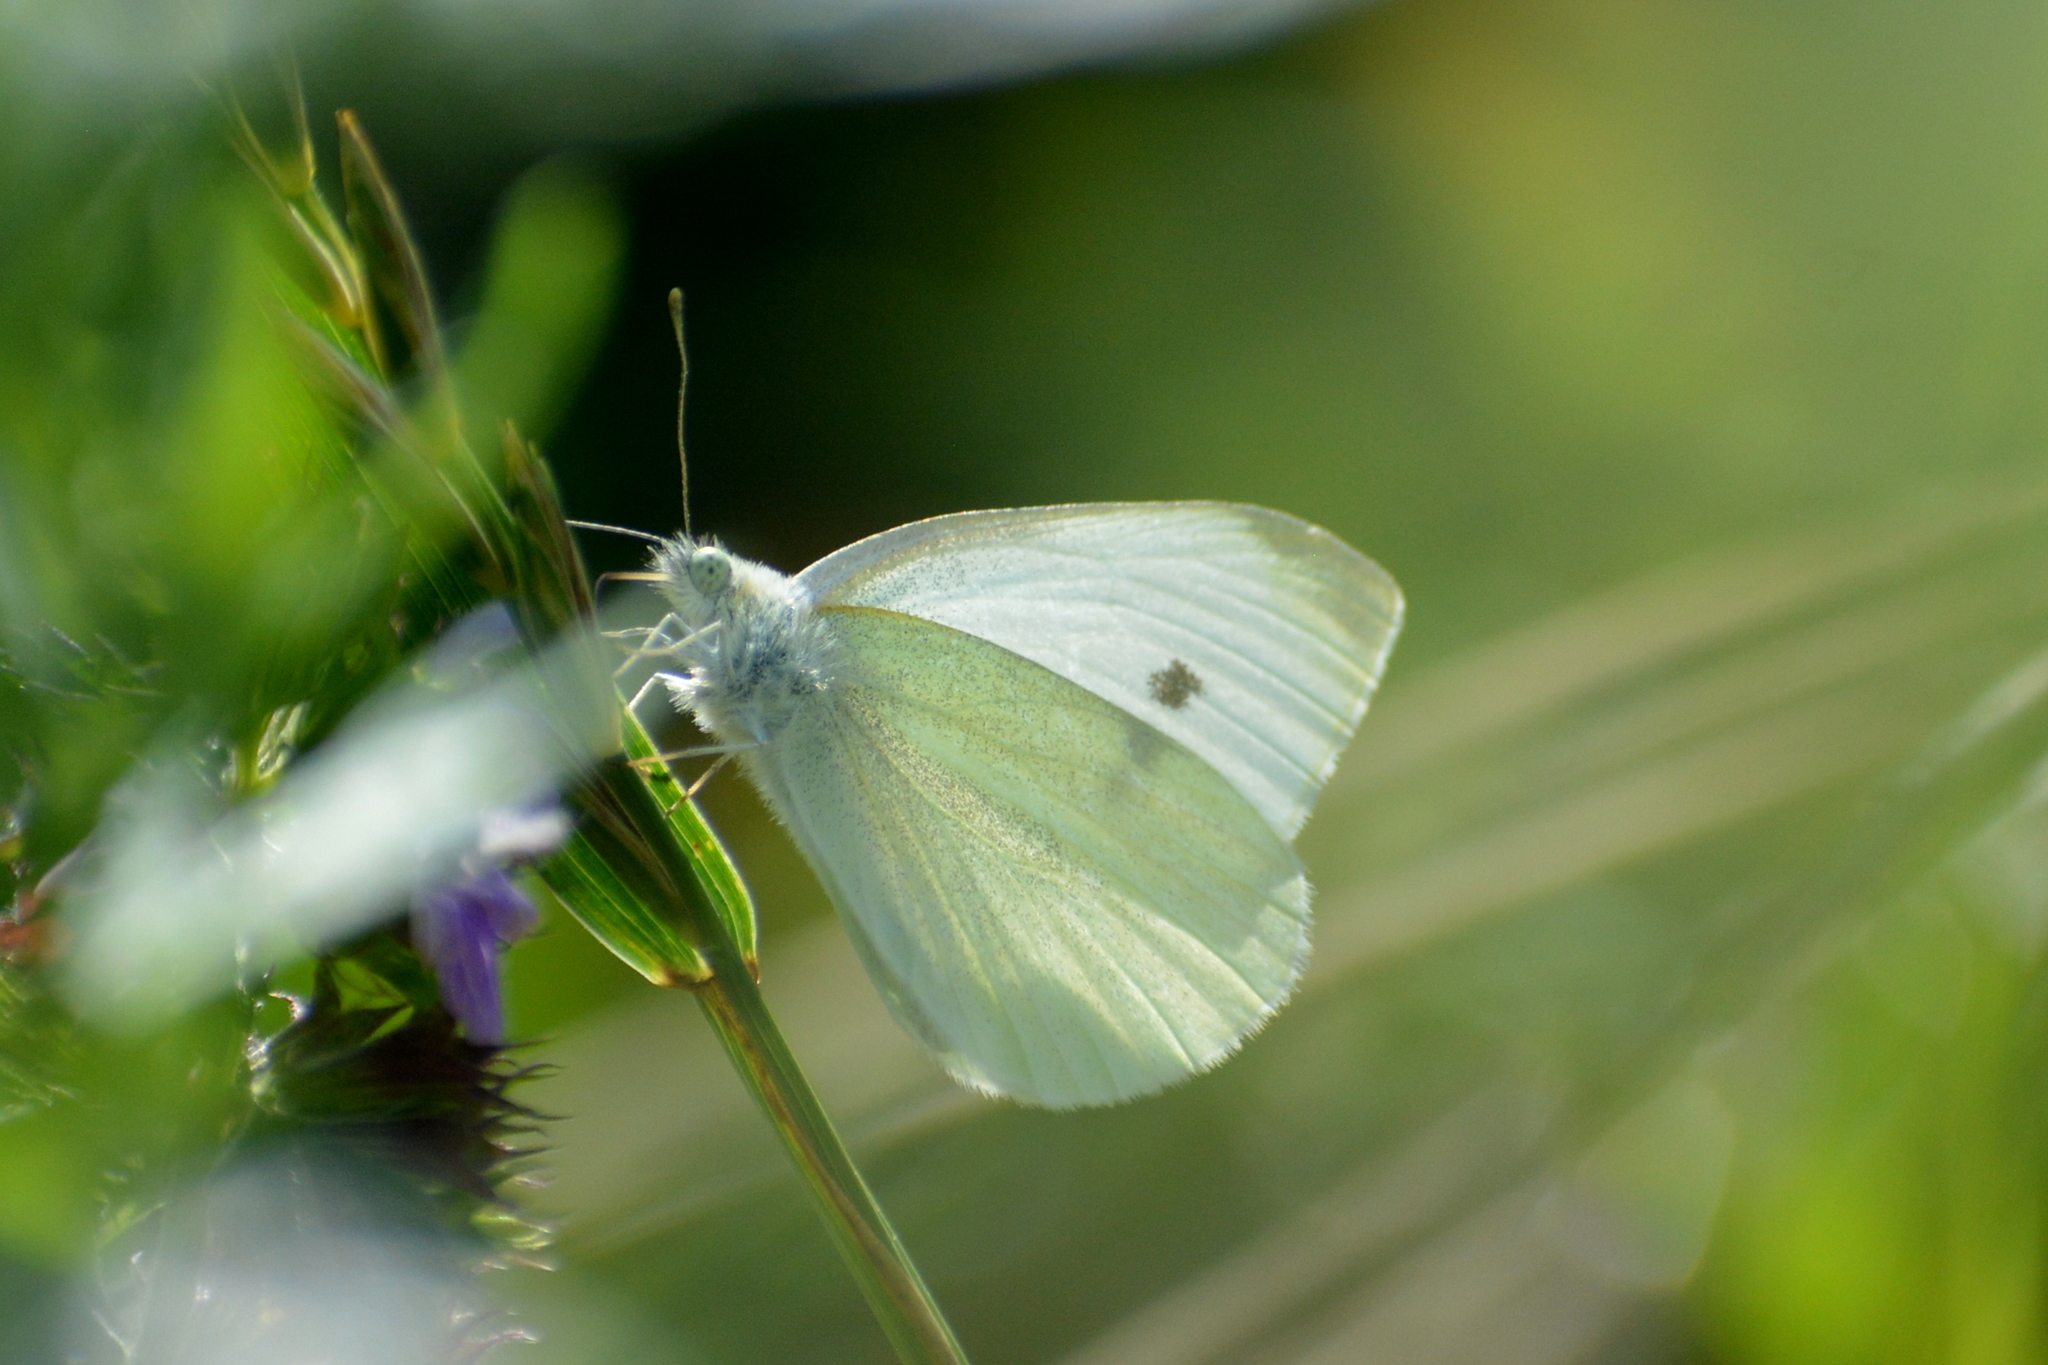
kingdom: Animalia
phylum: Arthropoda
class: Insecta
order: Lepidoptera
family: Pieridae
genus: Pieris
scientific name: Pieris rapae
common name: Small white
